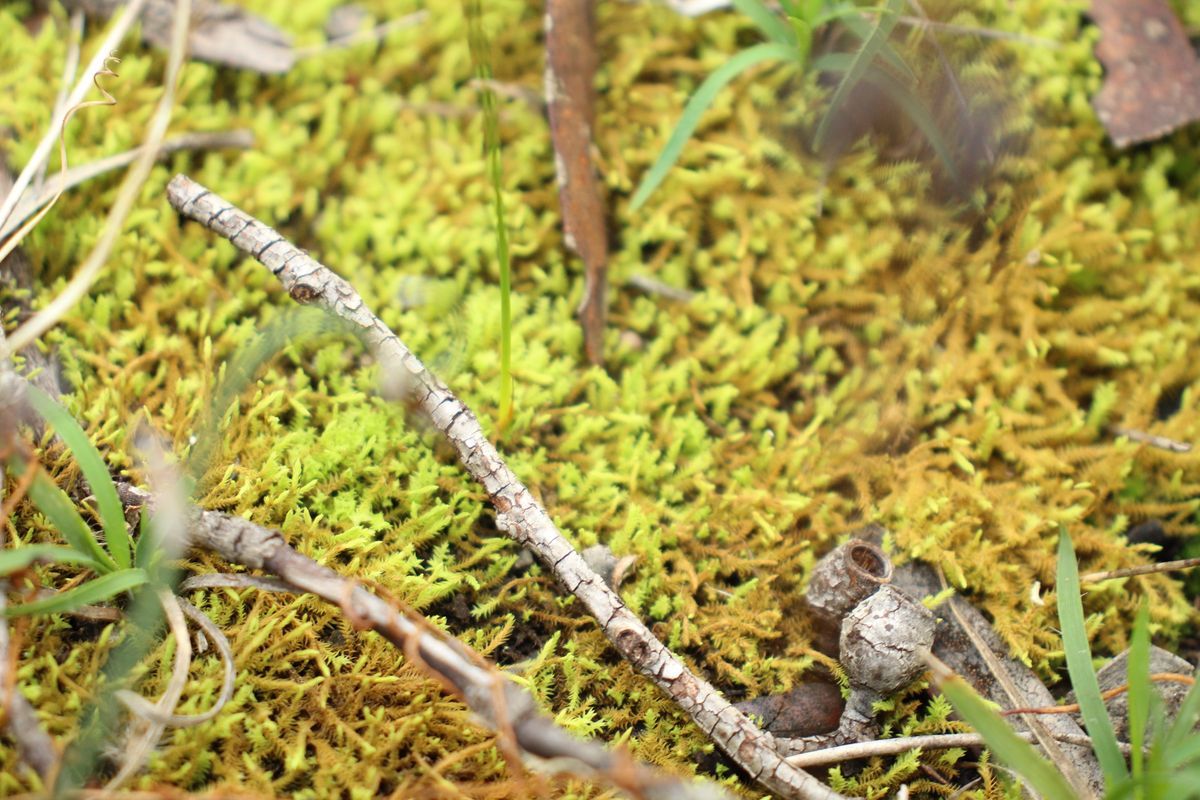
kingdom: Plantae
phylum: Bryophyta
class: Bryopsida
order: Pottiales
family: Pottiaceae
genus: Triquetrella
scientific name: Triquetrella papillata
